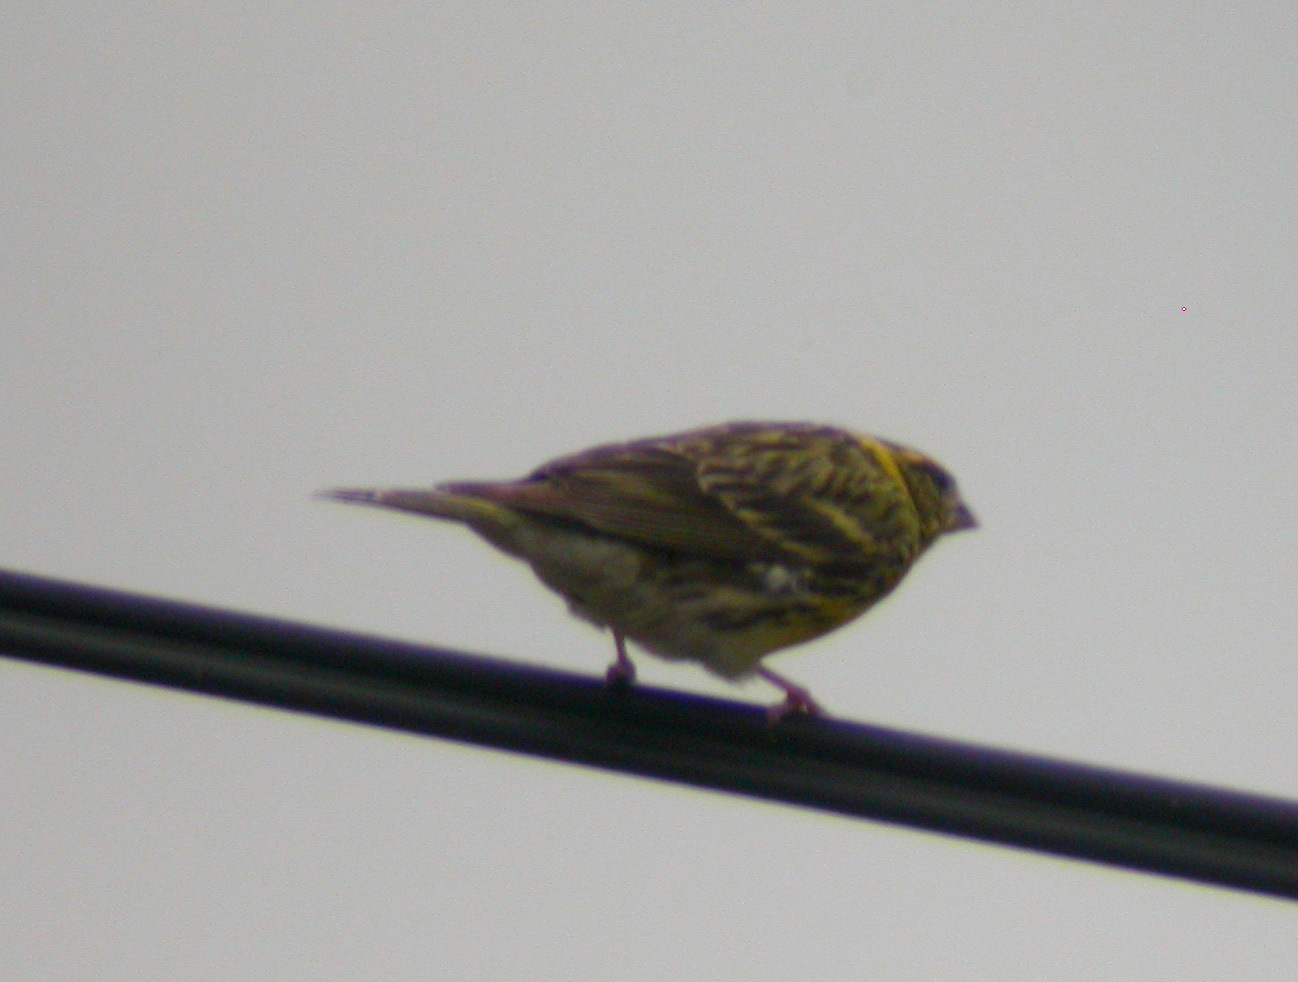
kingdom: Animalia
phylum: Chordata
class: Aves
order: Passeriformes
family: Fringillidae
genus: Serinus
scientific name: Serinus serinus
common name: European serin
